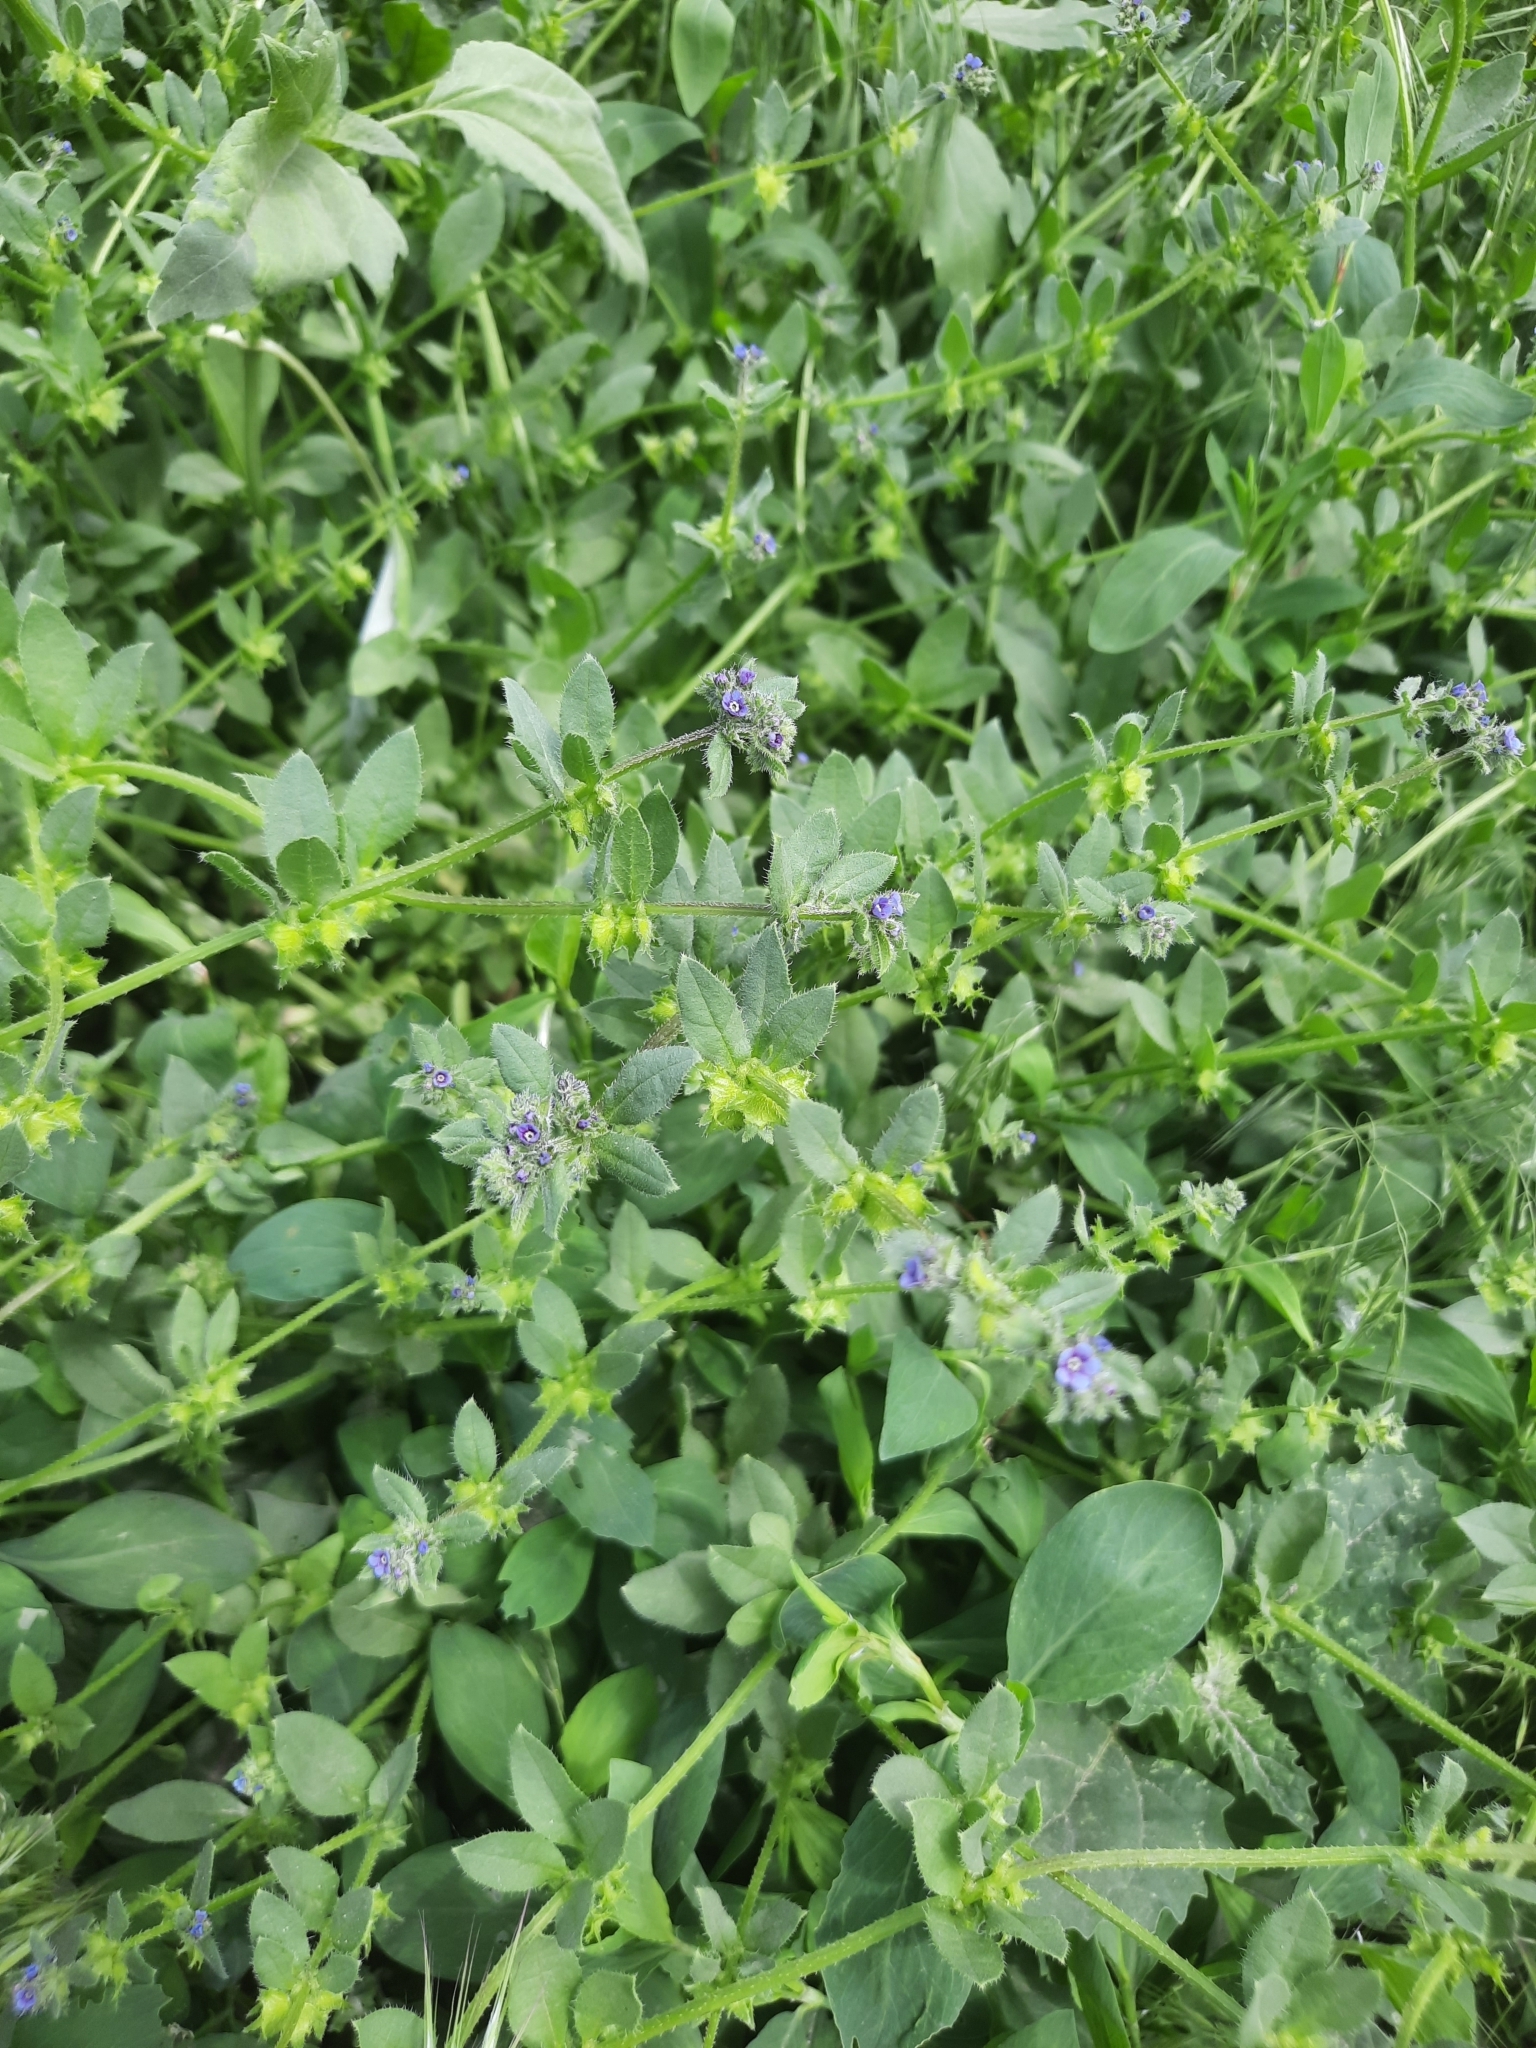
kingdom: Plantae
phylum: Tracheophyta
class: Magnoliopsida
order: Boraginales
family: Boraginaceae
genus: Asperugo
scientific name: Asperugo procumbens
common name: Madwort
